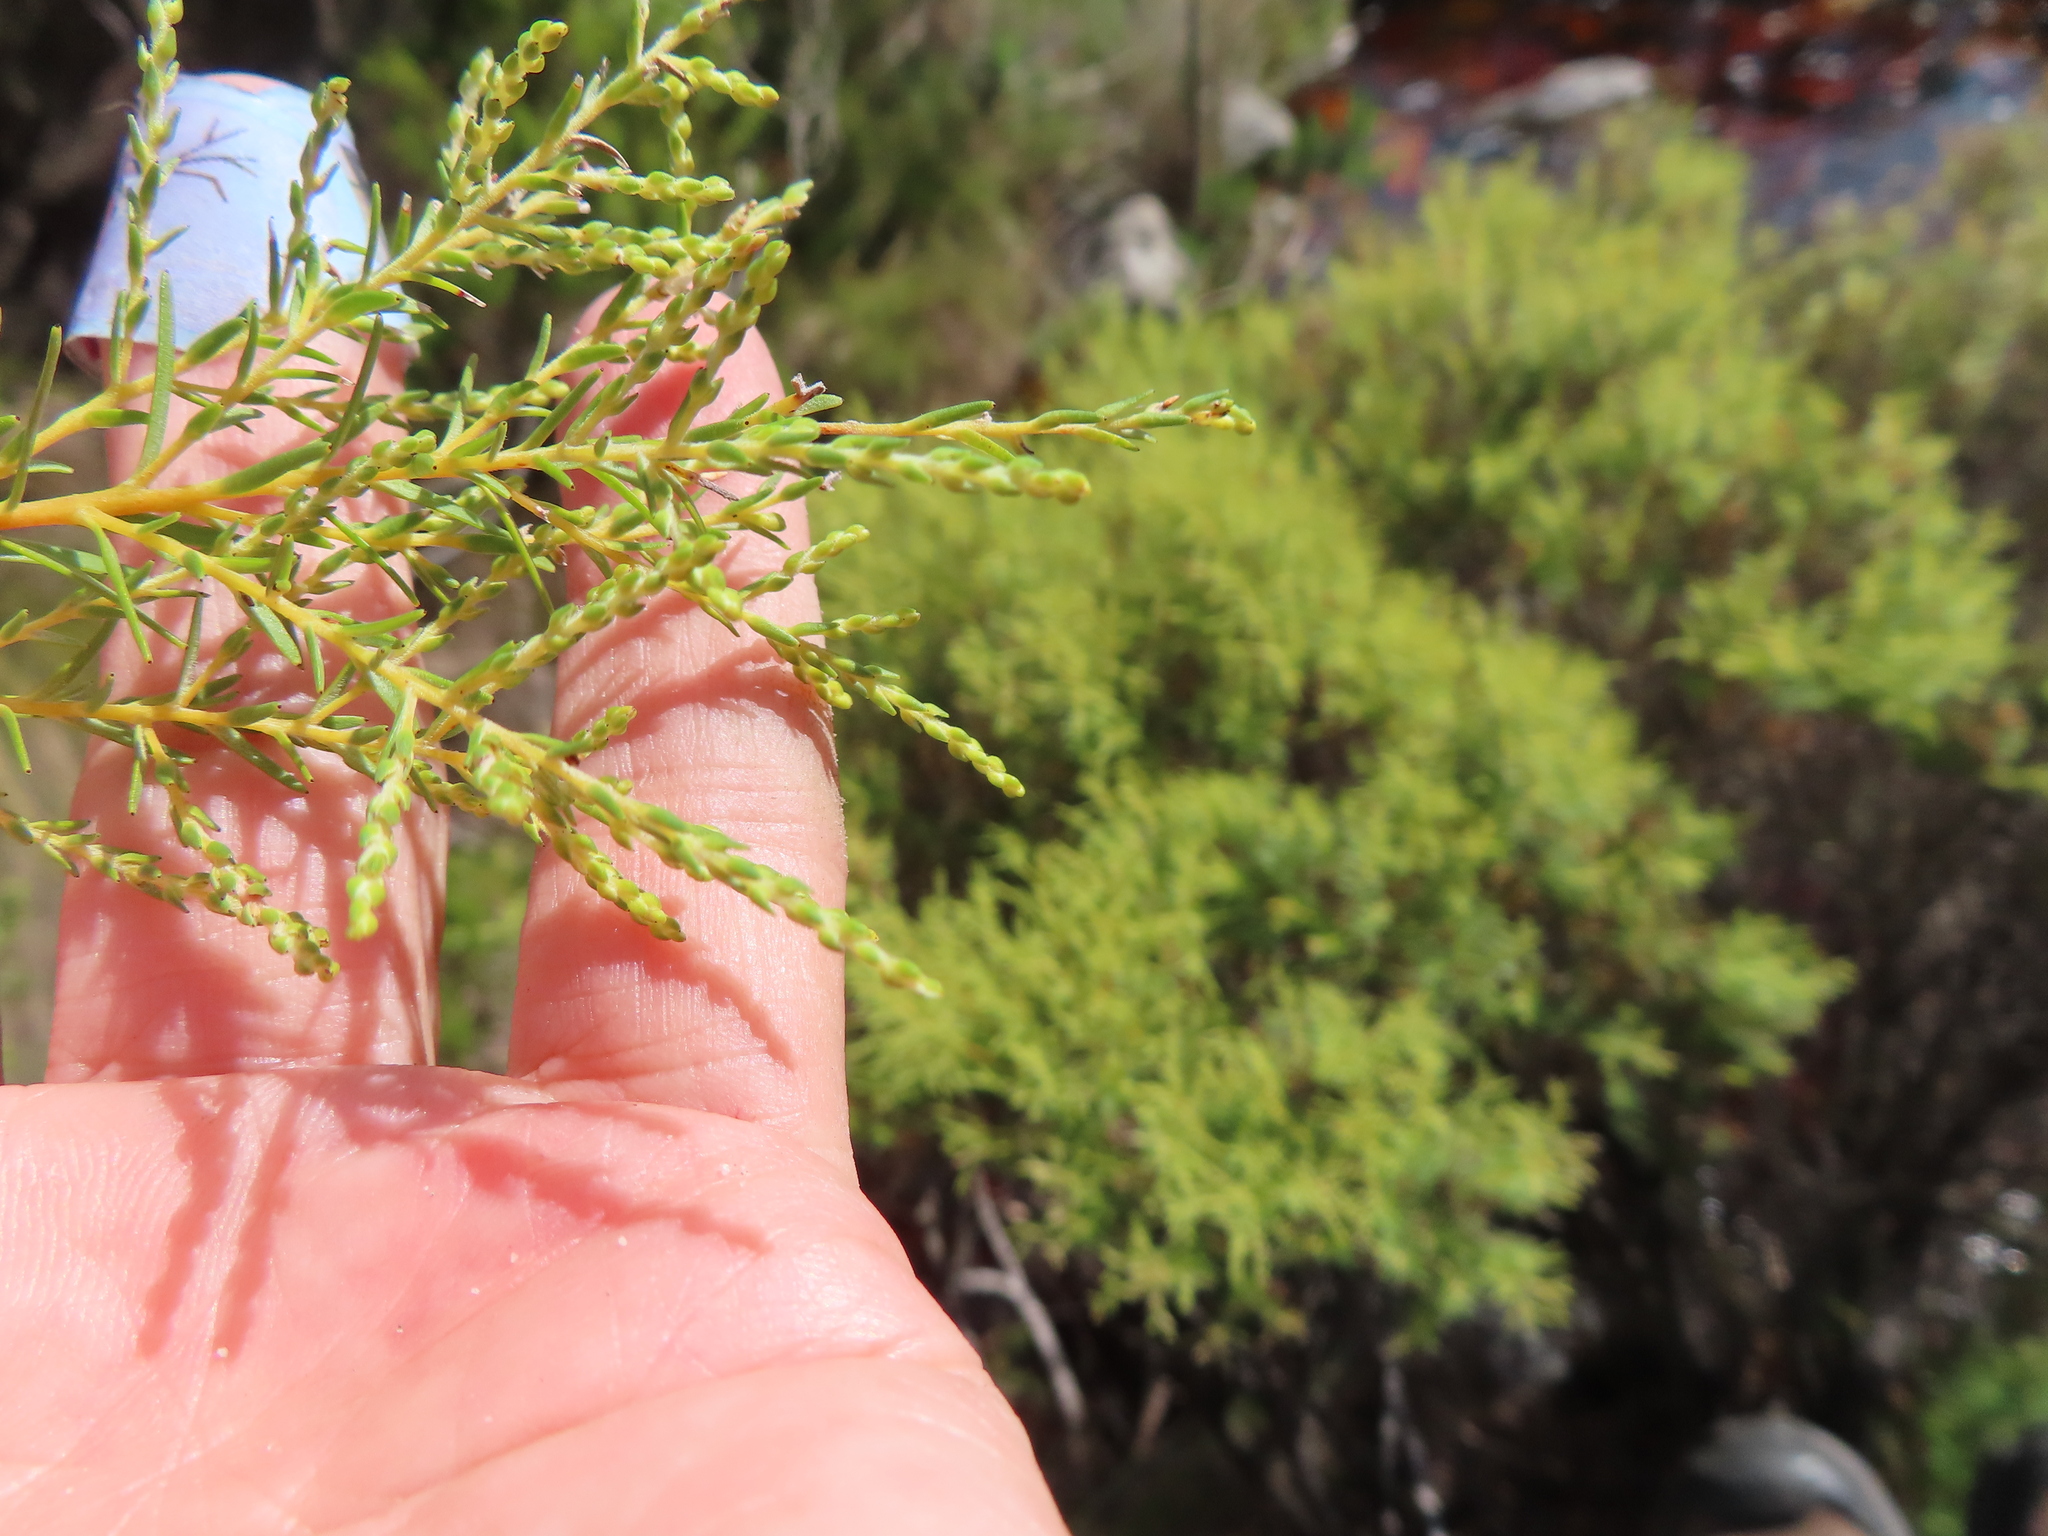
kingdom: Plantae
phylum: Tracheophyta
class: Magnoliopsida
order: Bruniales
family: Bruniaceae
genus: Brunia
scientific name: Brunia africana
